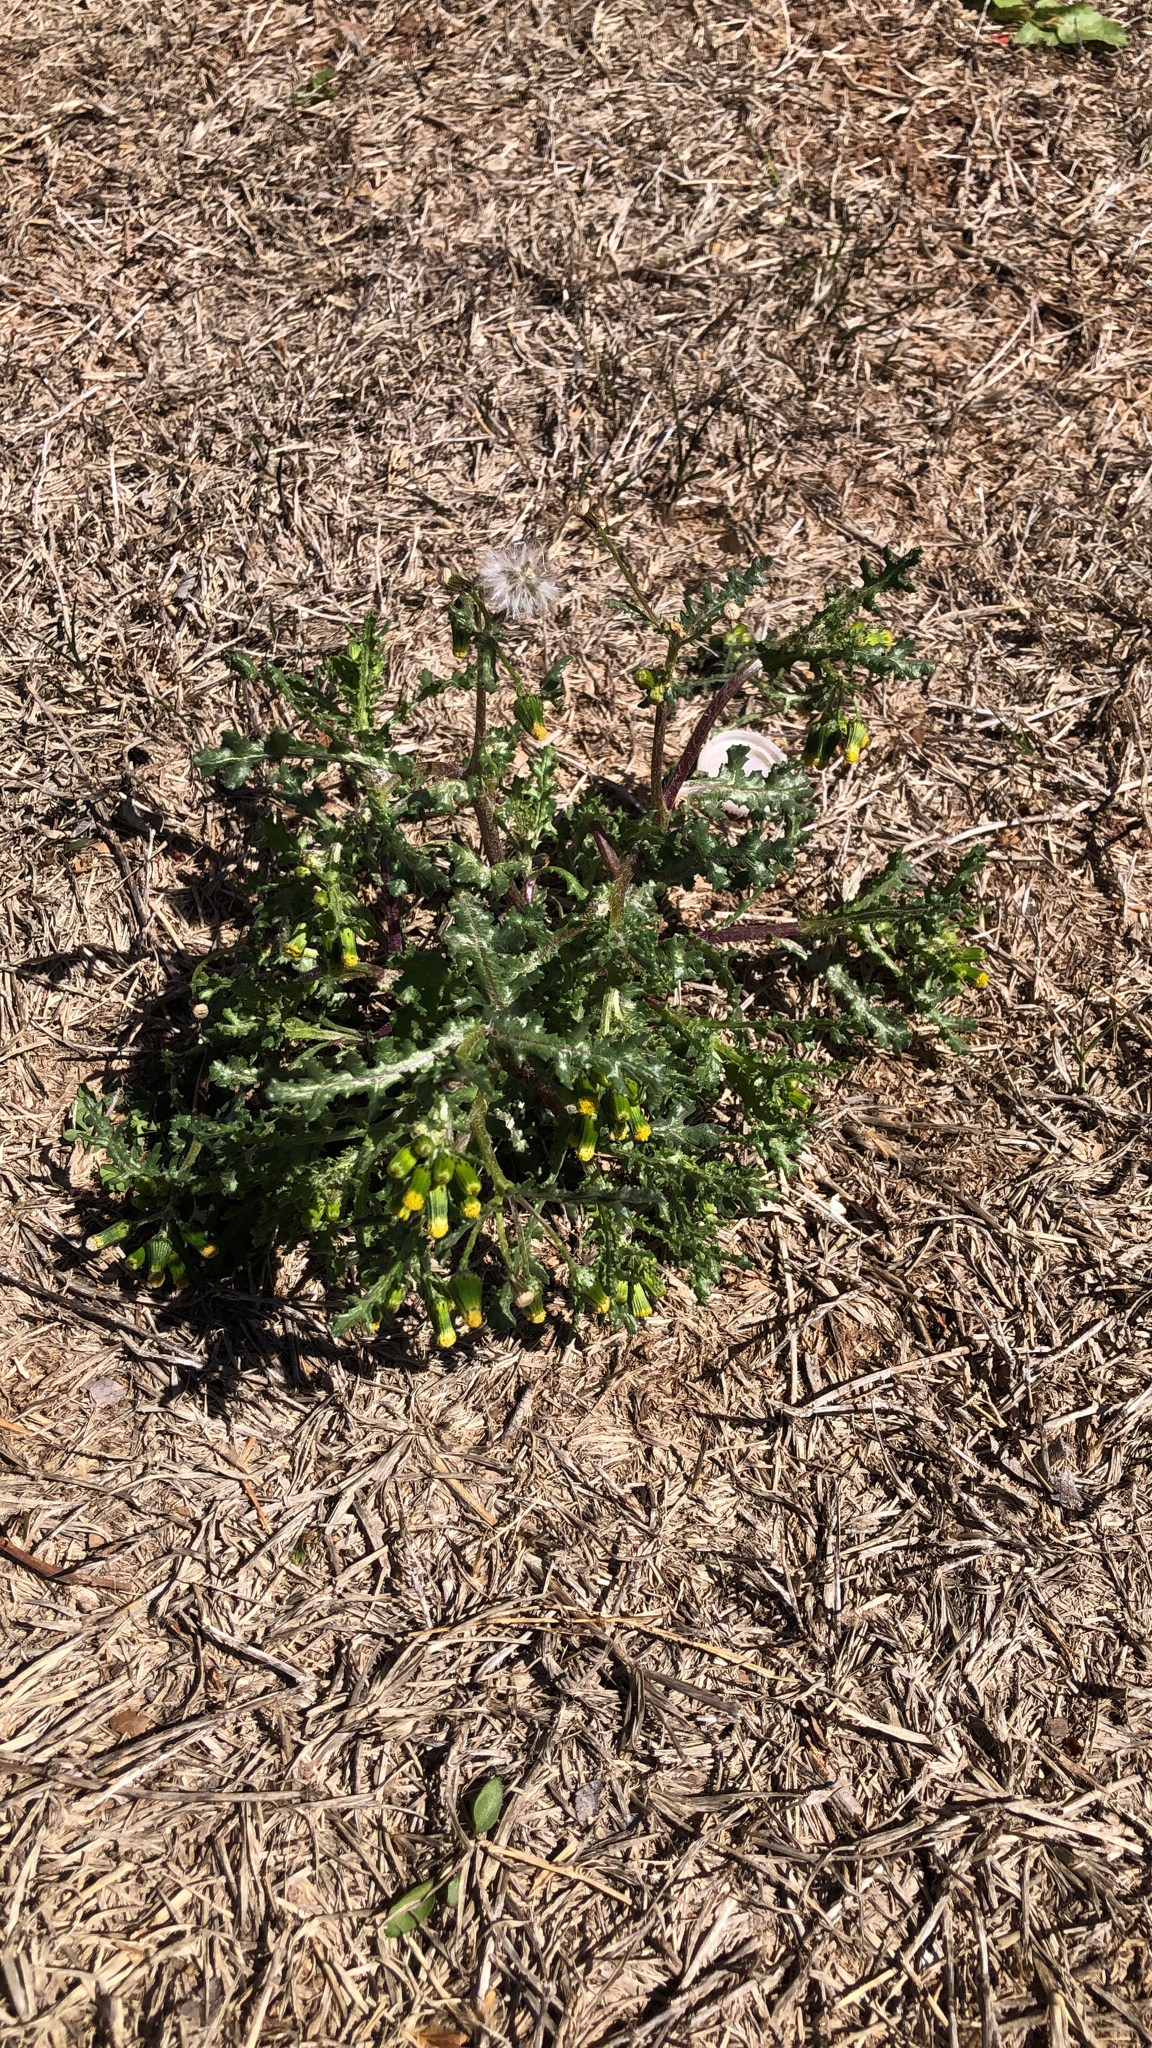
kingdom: Plantae
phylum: Tracheophyta
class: Magnoliopsida
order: Asterales
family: Asteraceae
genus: Senecio
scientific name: Senecio vulgaris
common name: Old-man-in-the-spring
